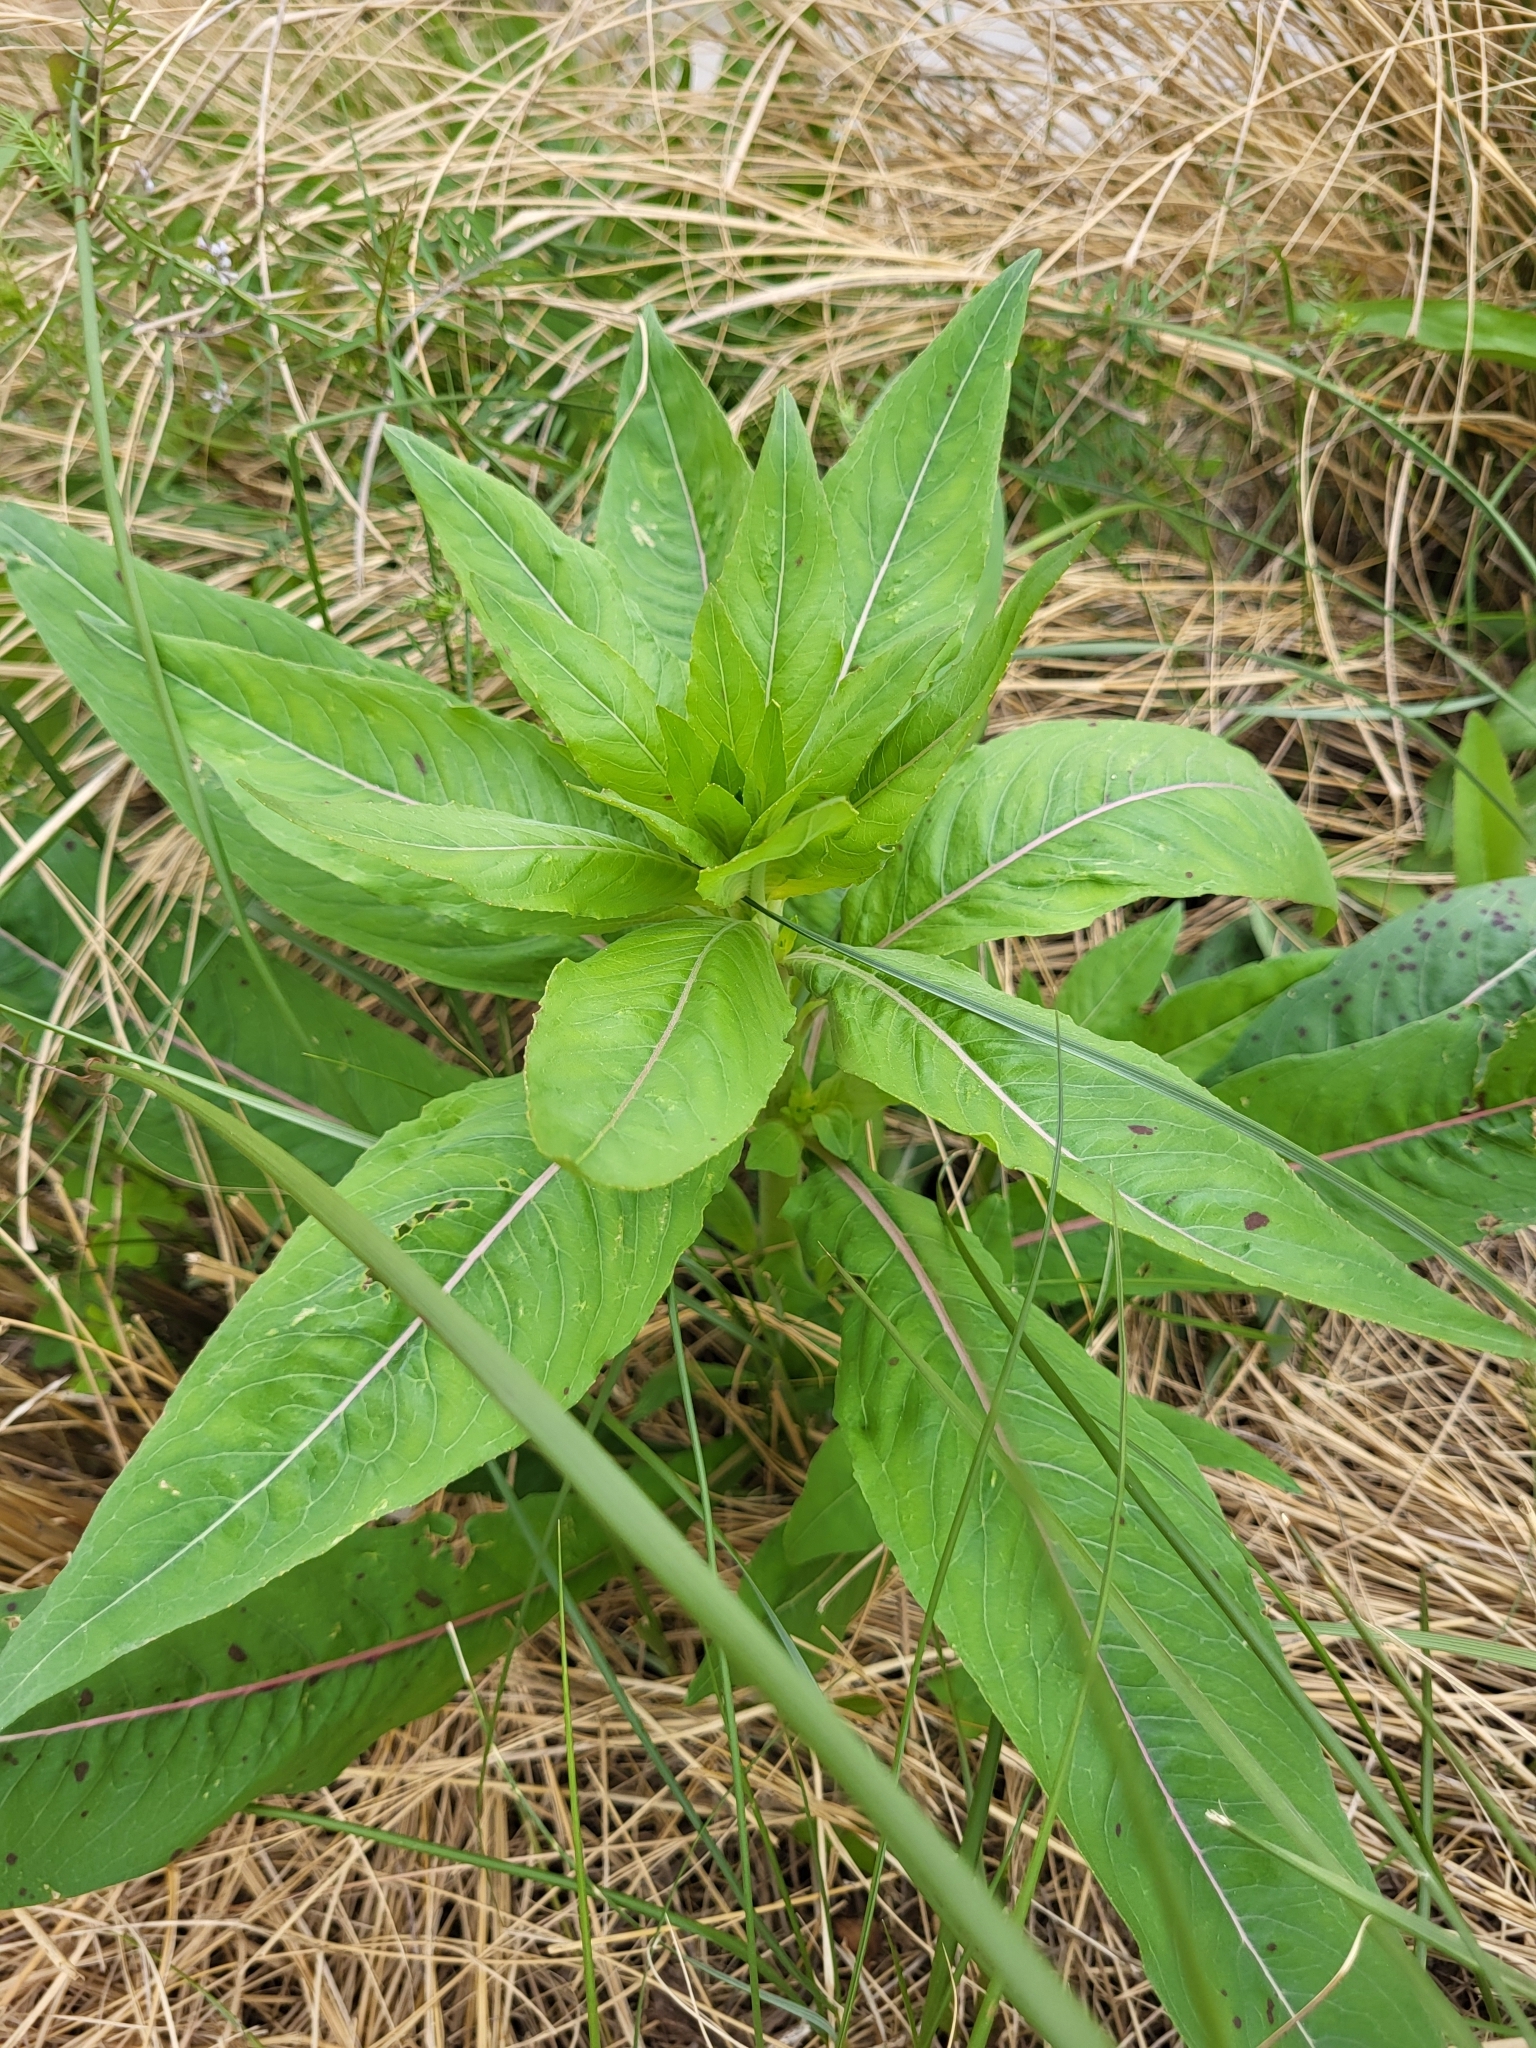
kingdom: Plantae
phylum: Tracheophyta
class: Magnoliopsida
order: Myrtales
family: Onagraceae
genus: Oenothera
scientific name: Oenothera biennis
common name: Common evening-primrose
